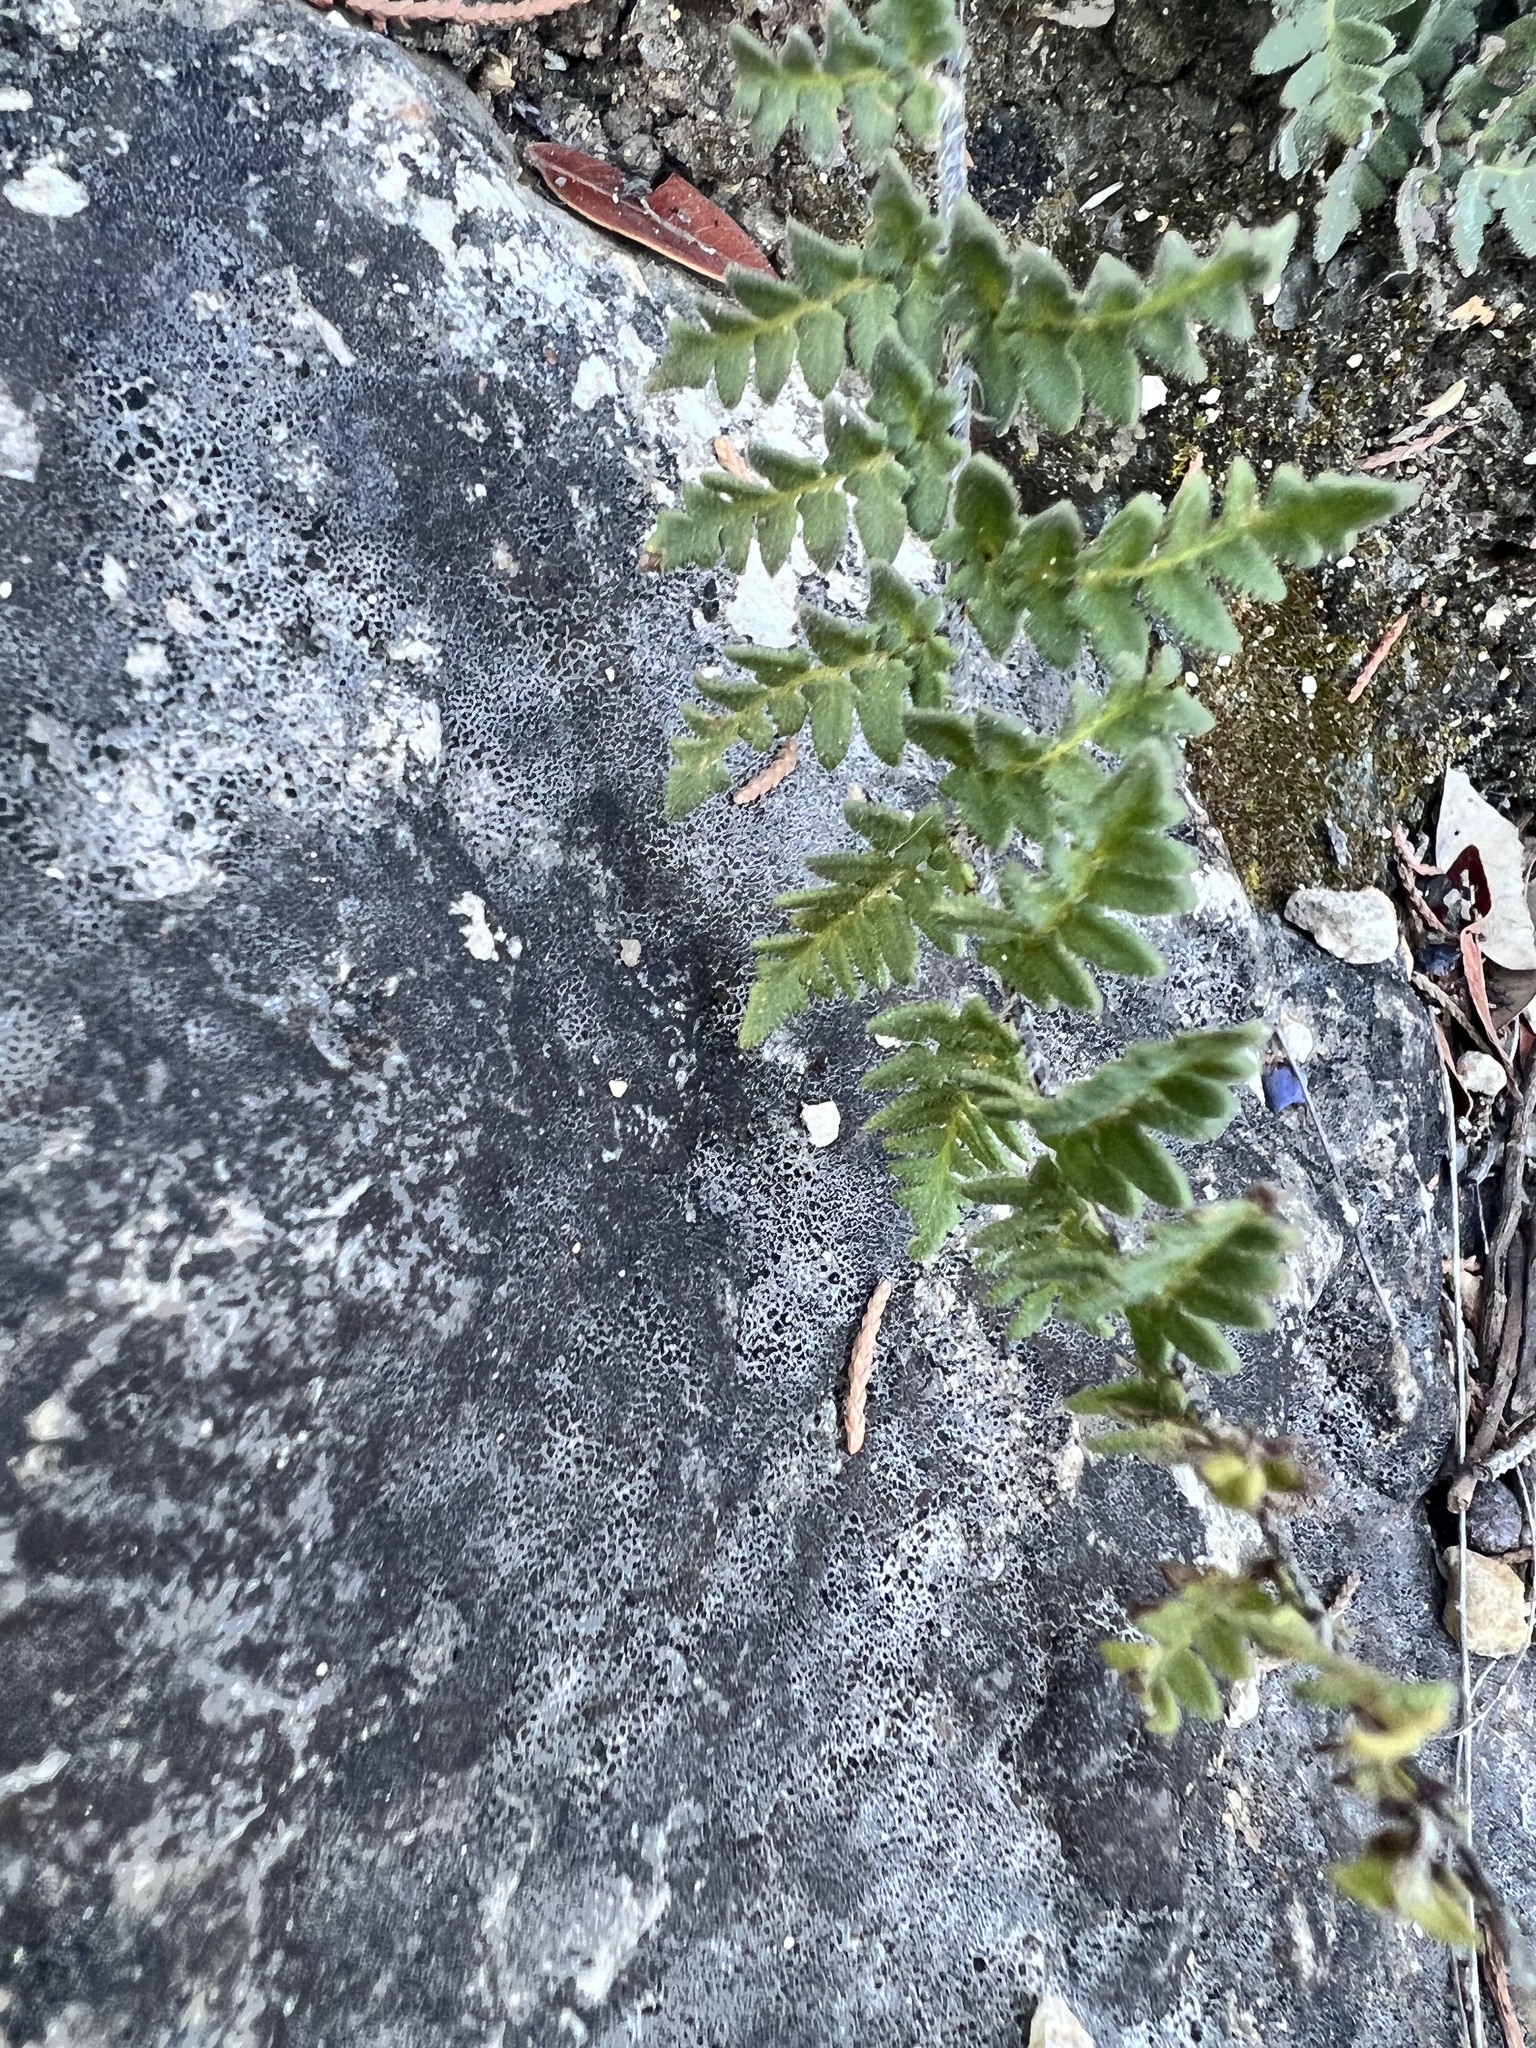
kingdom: Plantae
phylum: Tracheophyta
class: Polypodiopsida
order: Polypodiales
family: Pteridaceae
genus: Myriopteris
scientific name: Myriopteris scabra
